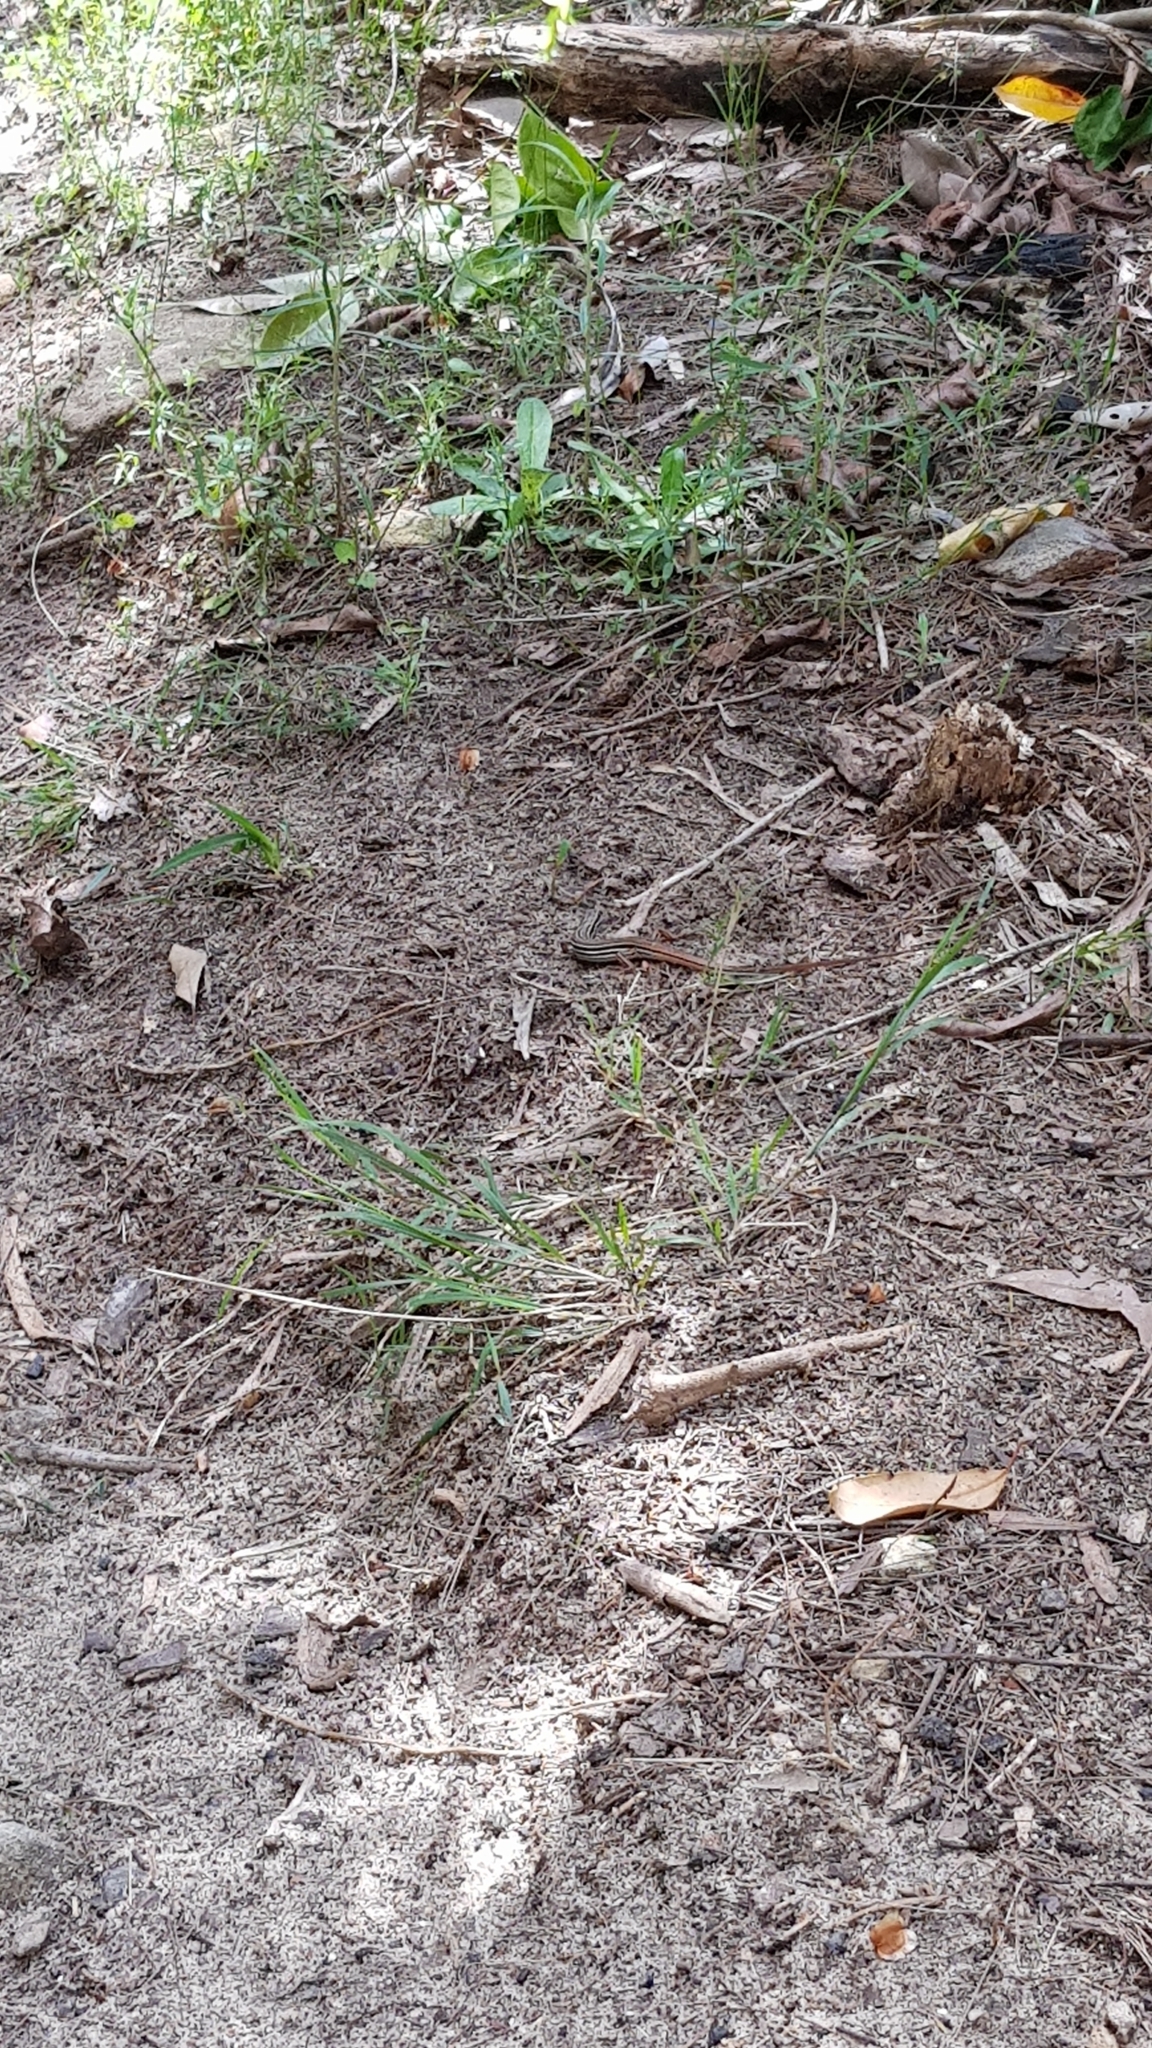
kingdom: Animalia
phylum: Chordata
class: Squamata
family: Scincidae
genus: Ctenotus
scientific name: Ctenotus taeniolatus
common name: Copper-tailed skink
